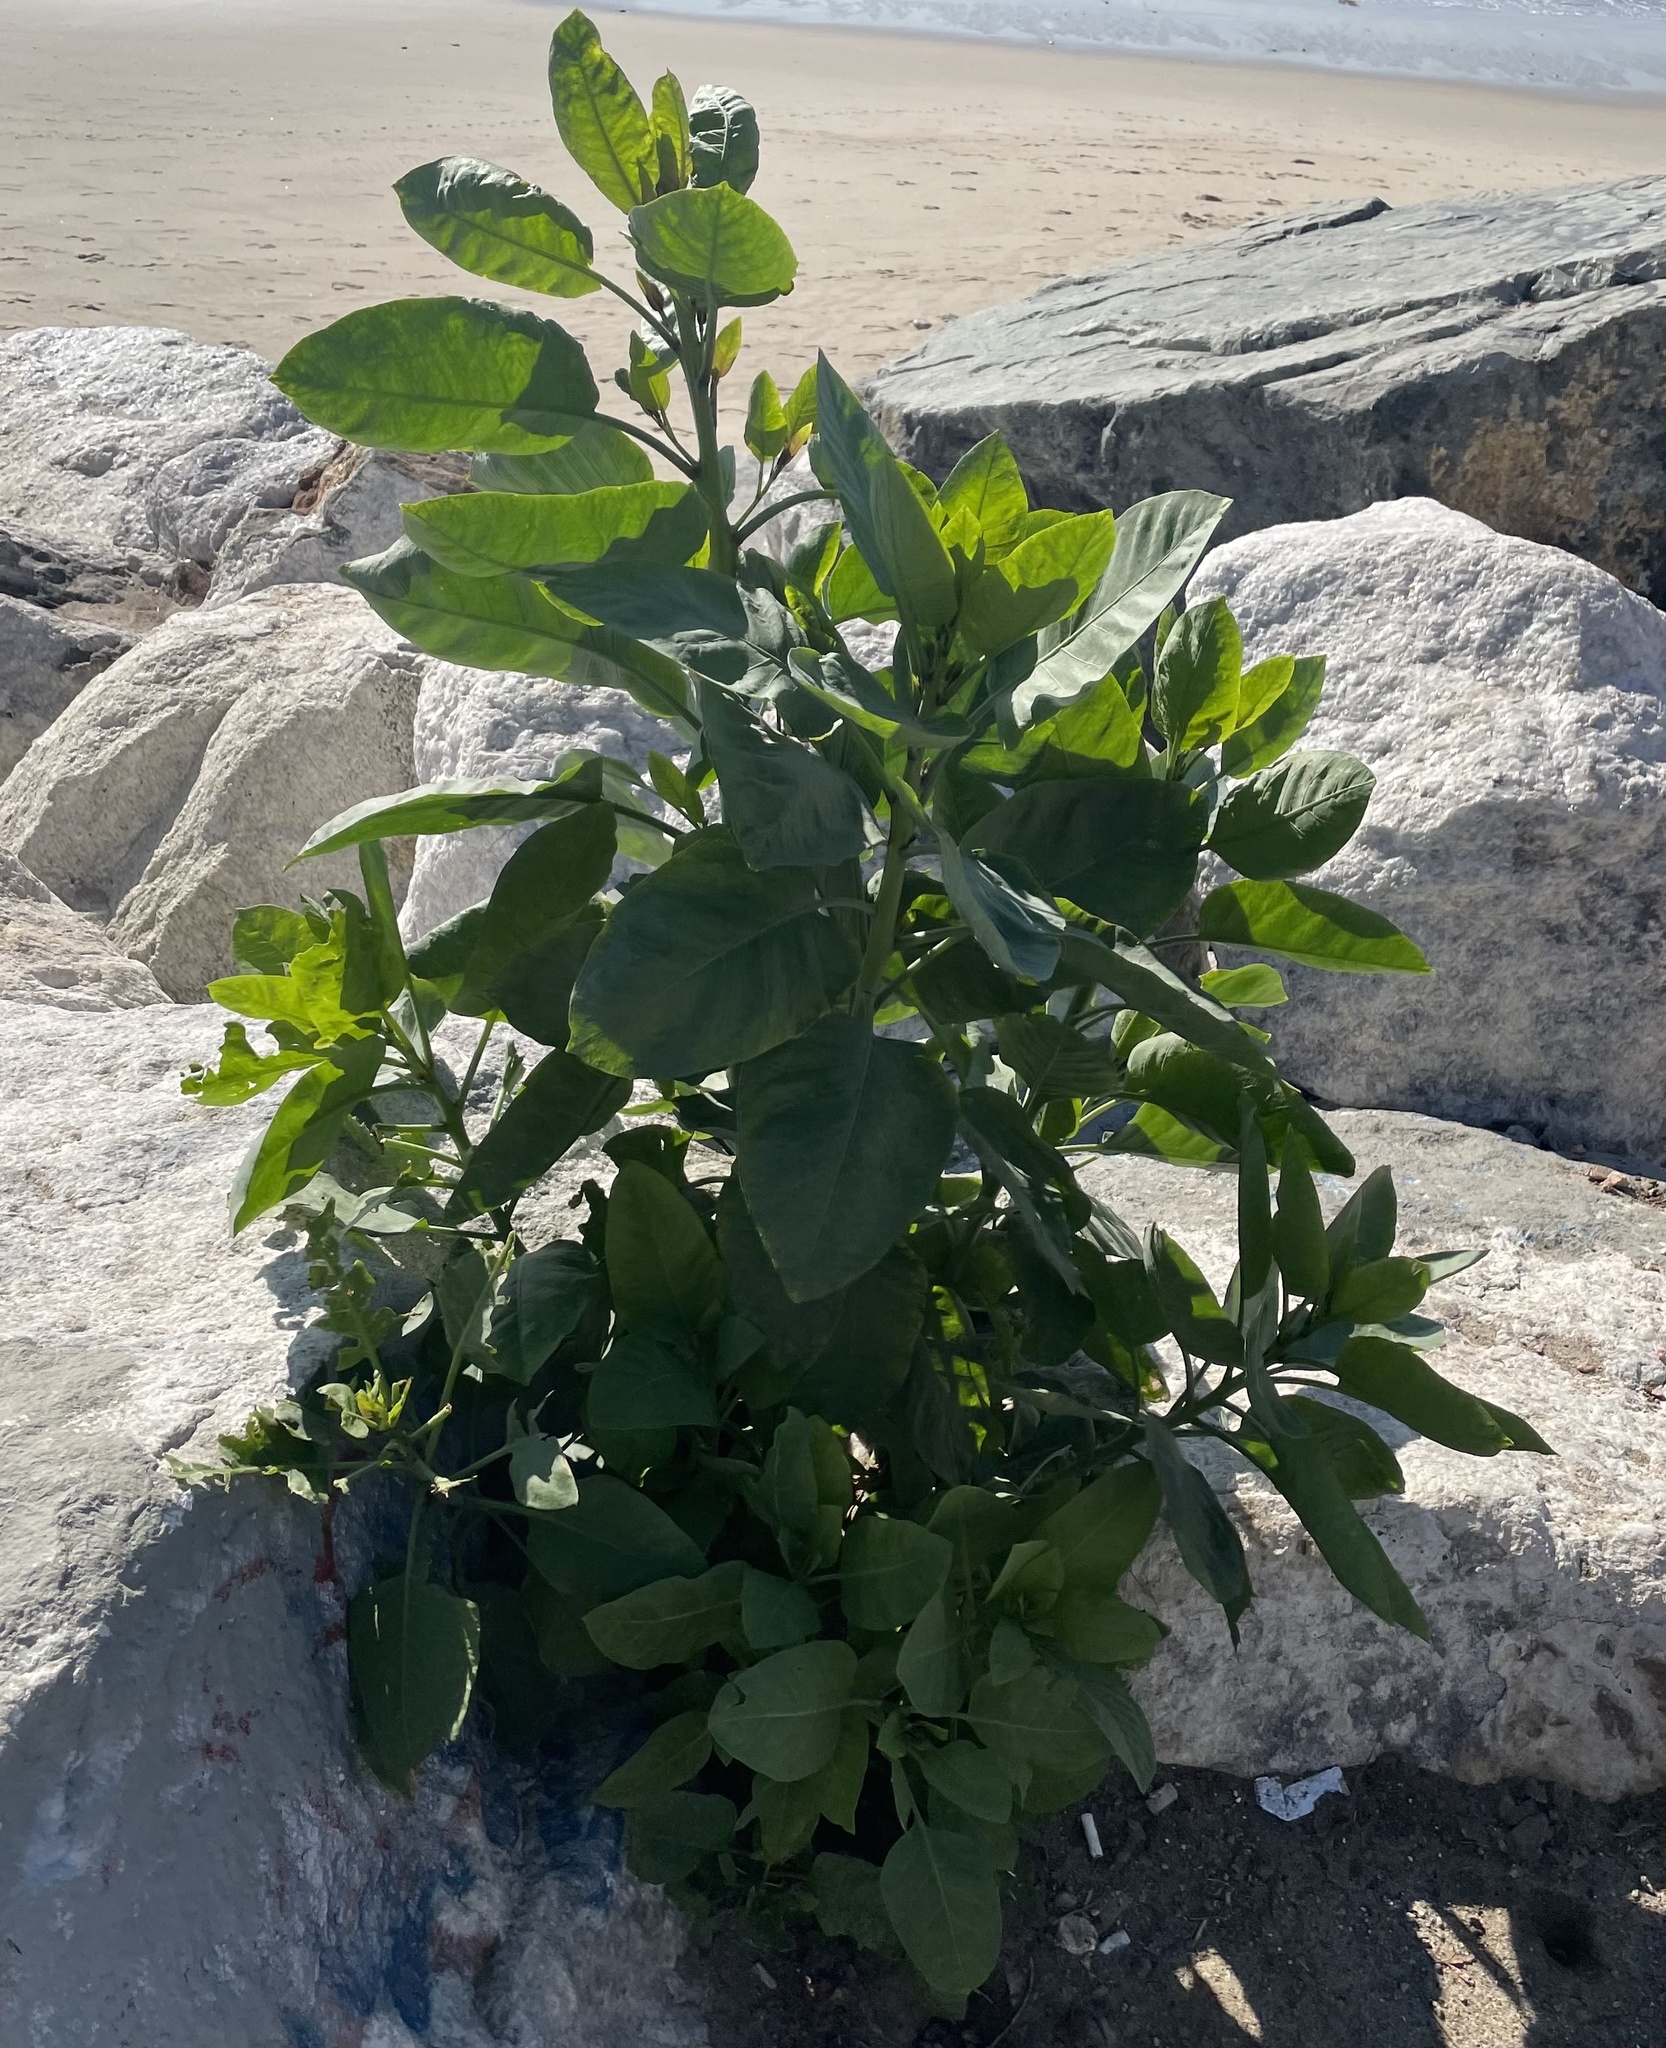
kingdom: Plantae
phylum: Tracheophyta
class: Magnoliopsida
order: Solanales
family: Solanaceae
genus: Nicotiana
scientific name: Nicotiana glauca
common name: Tree tobacco
